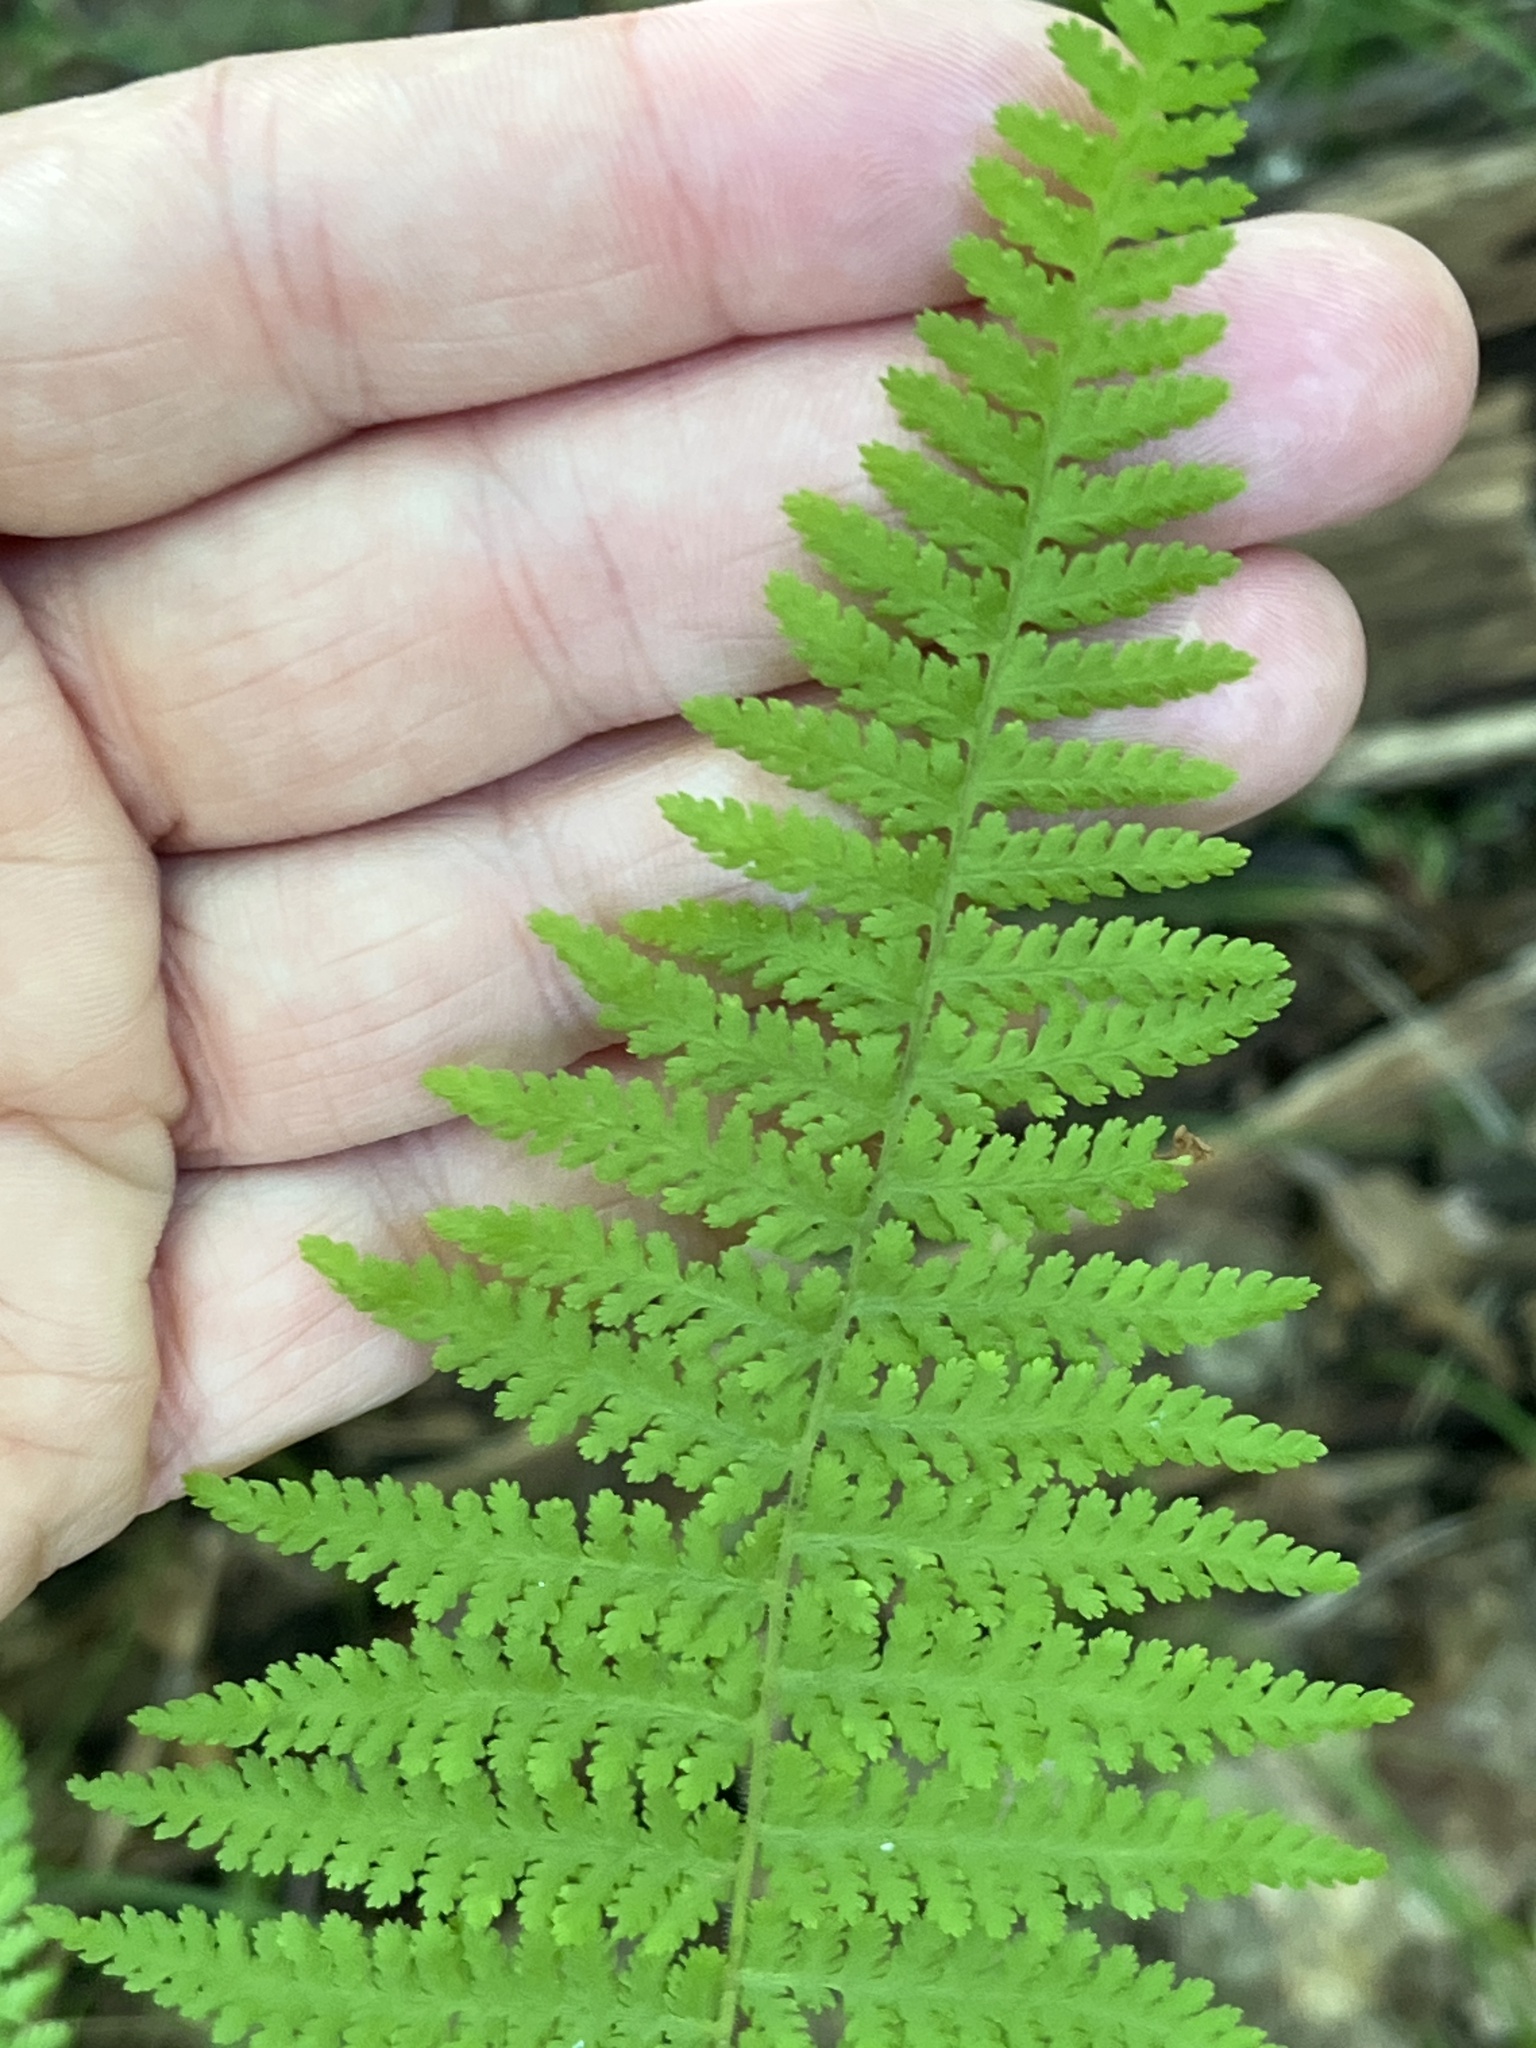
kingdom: Plantae
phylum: Tracheophyta
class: Polypodiopsida
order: Polypodiales
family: Dennstaedtiaceae
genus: Sitobolium
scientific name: Sitobolium punctilobum
